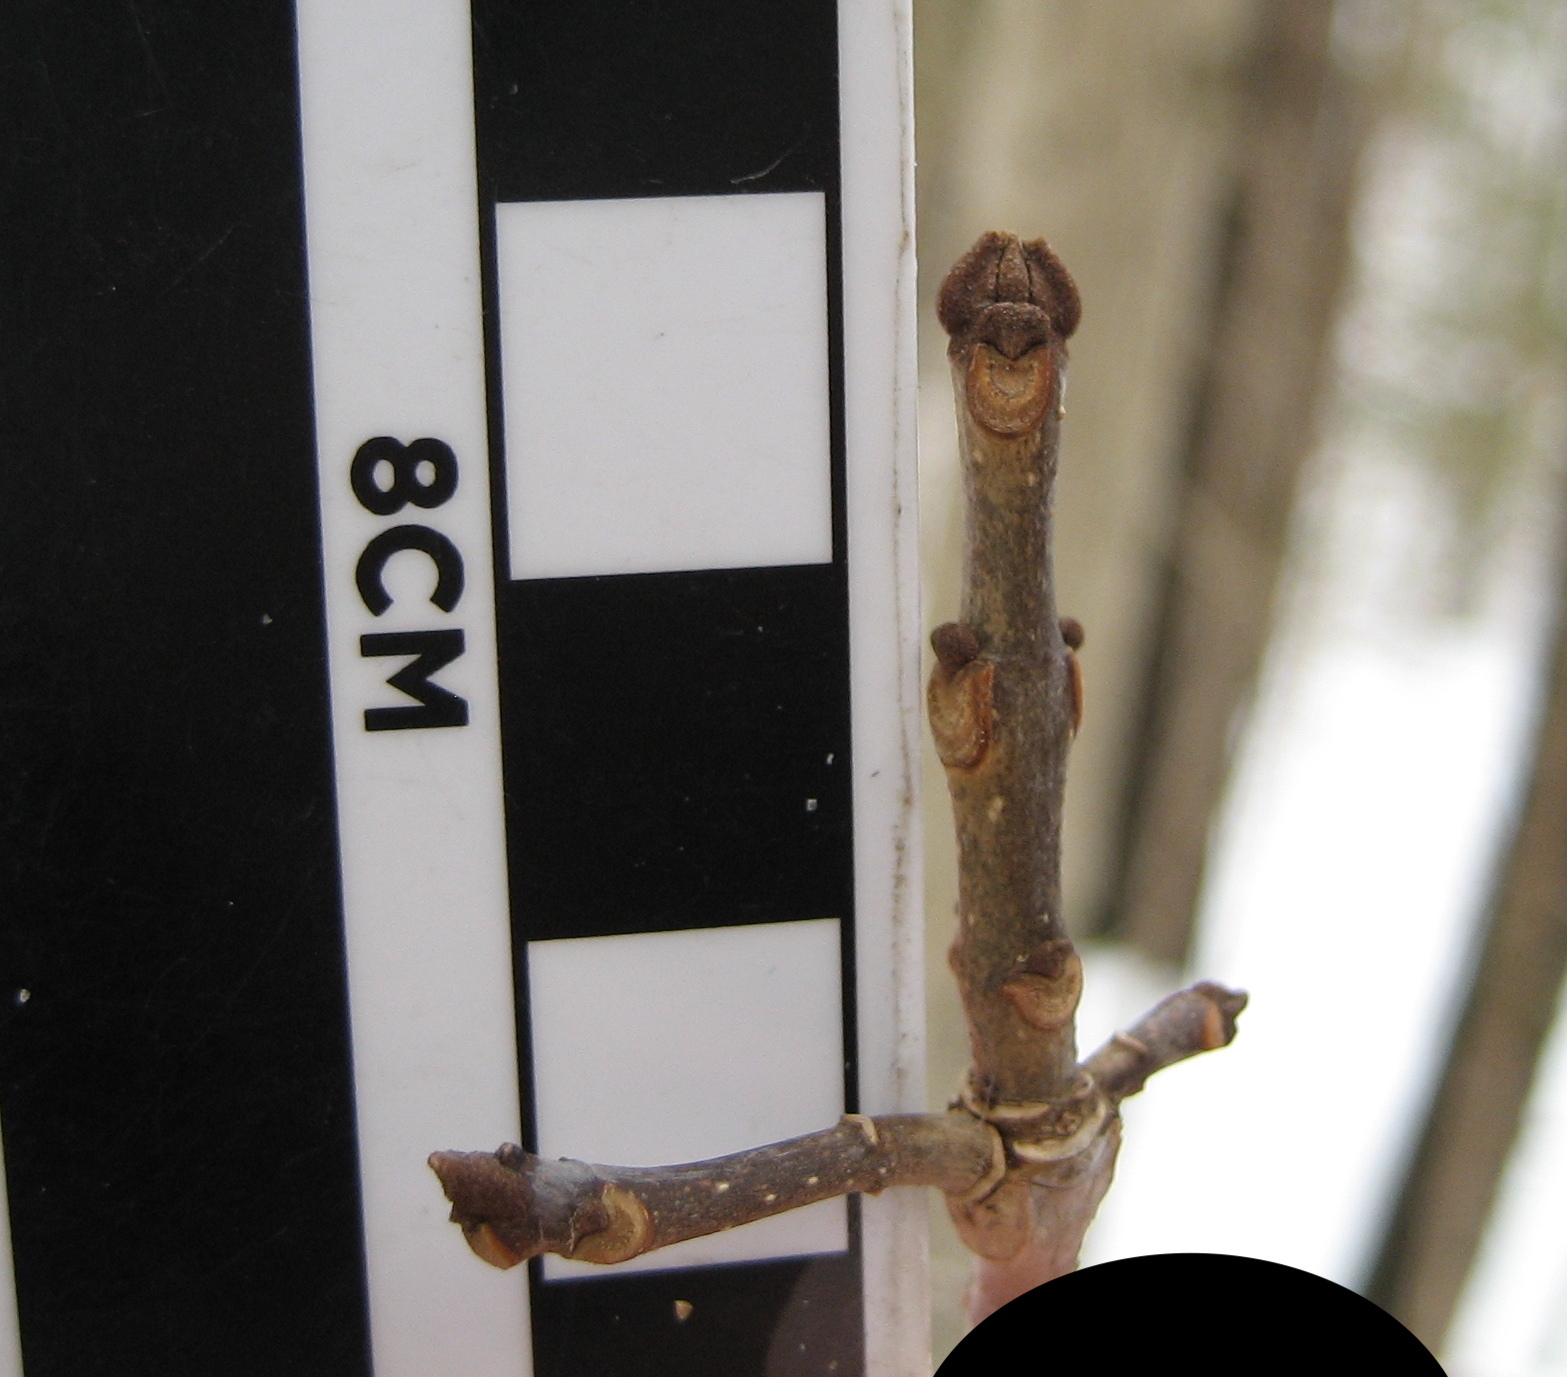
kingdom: Plantae
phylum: Tracheophyta
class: Magnoliopsida
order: Lamiales
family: Oleaceae
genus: Fraxinus
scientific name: Fraxinus americana
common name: White ash
